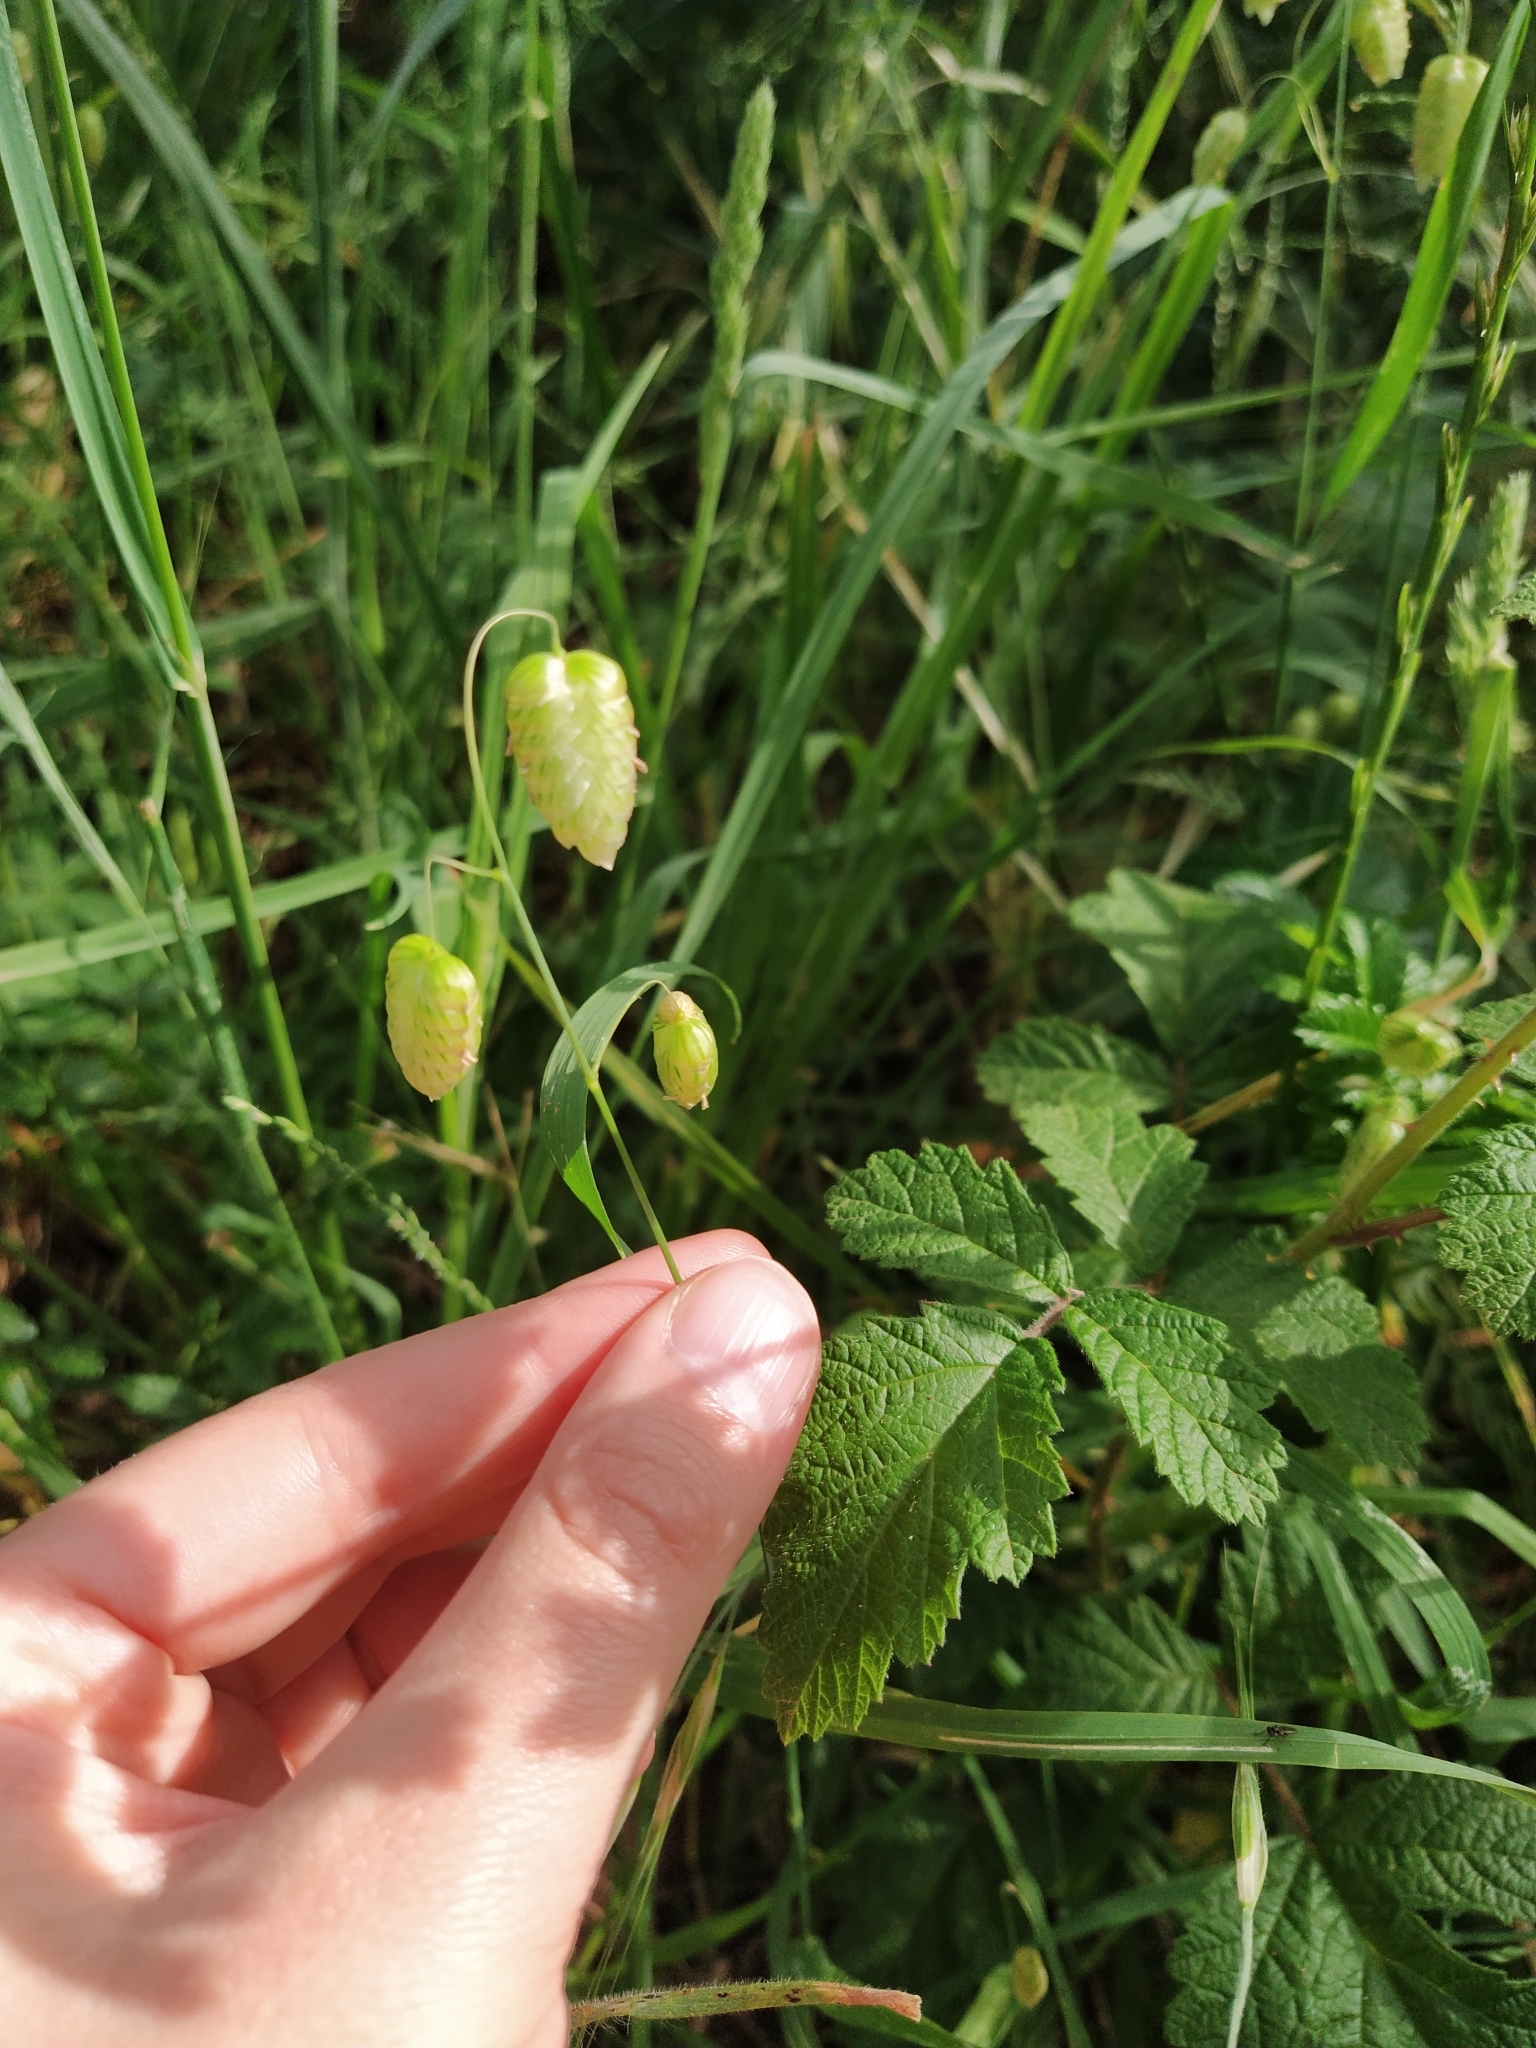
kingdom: Plantae
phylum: Tracheophyta
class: Liliopsida
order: Poales
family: Poaceae
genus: Briza
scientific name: Briza maxima
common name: Big quakinggrass
